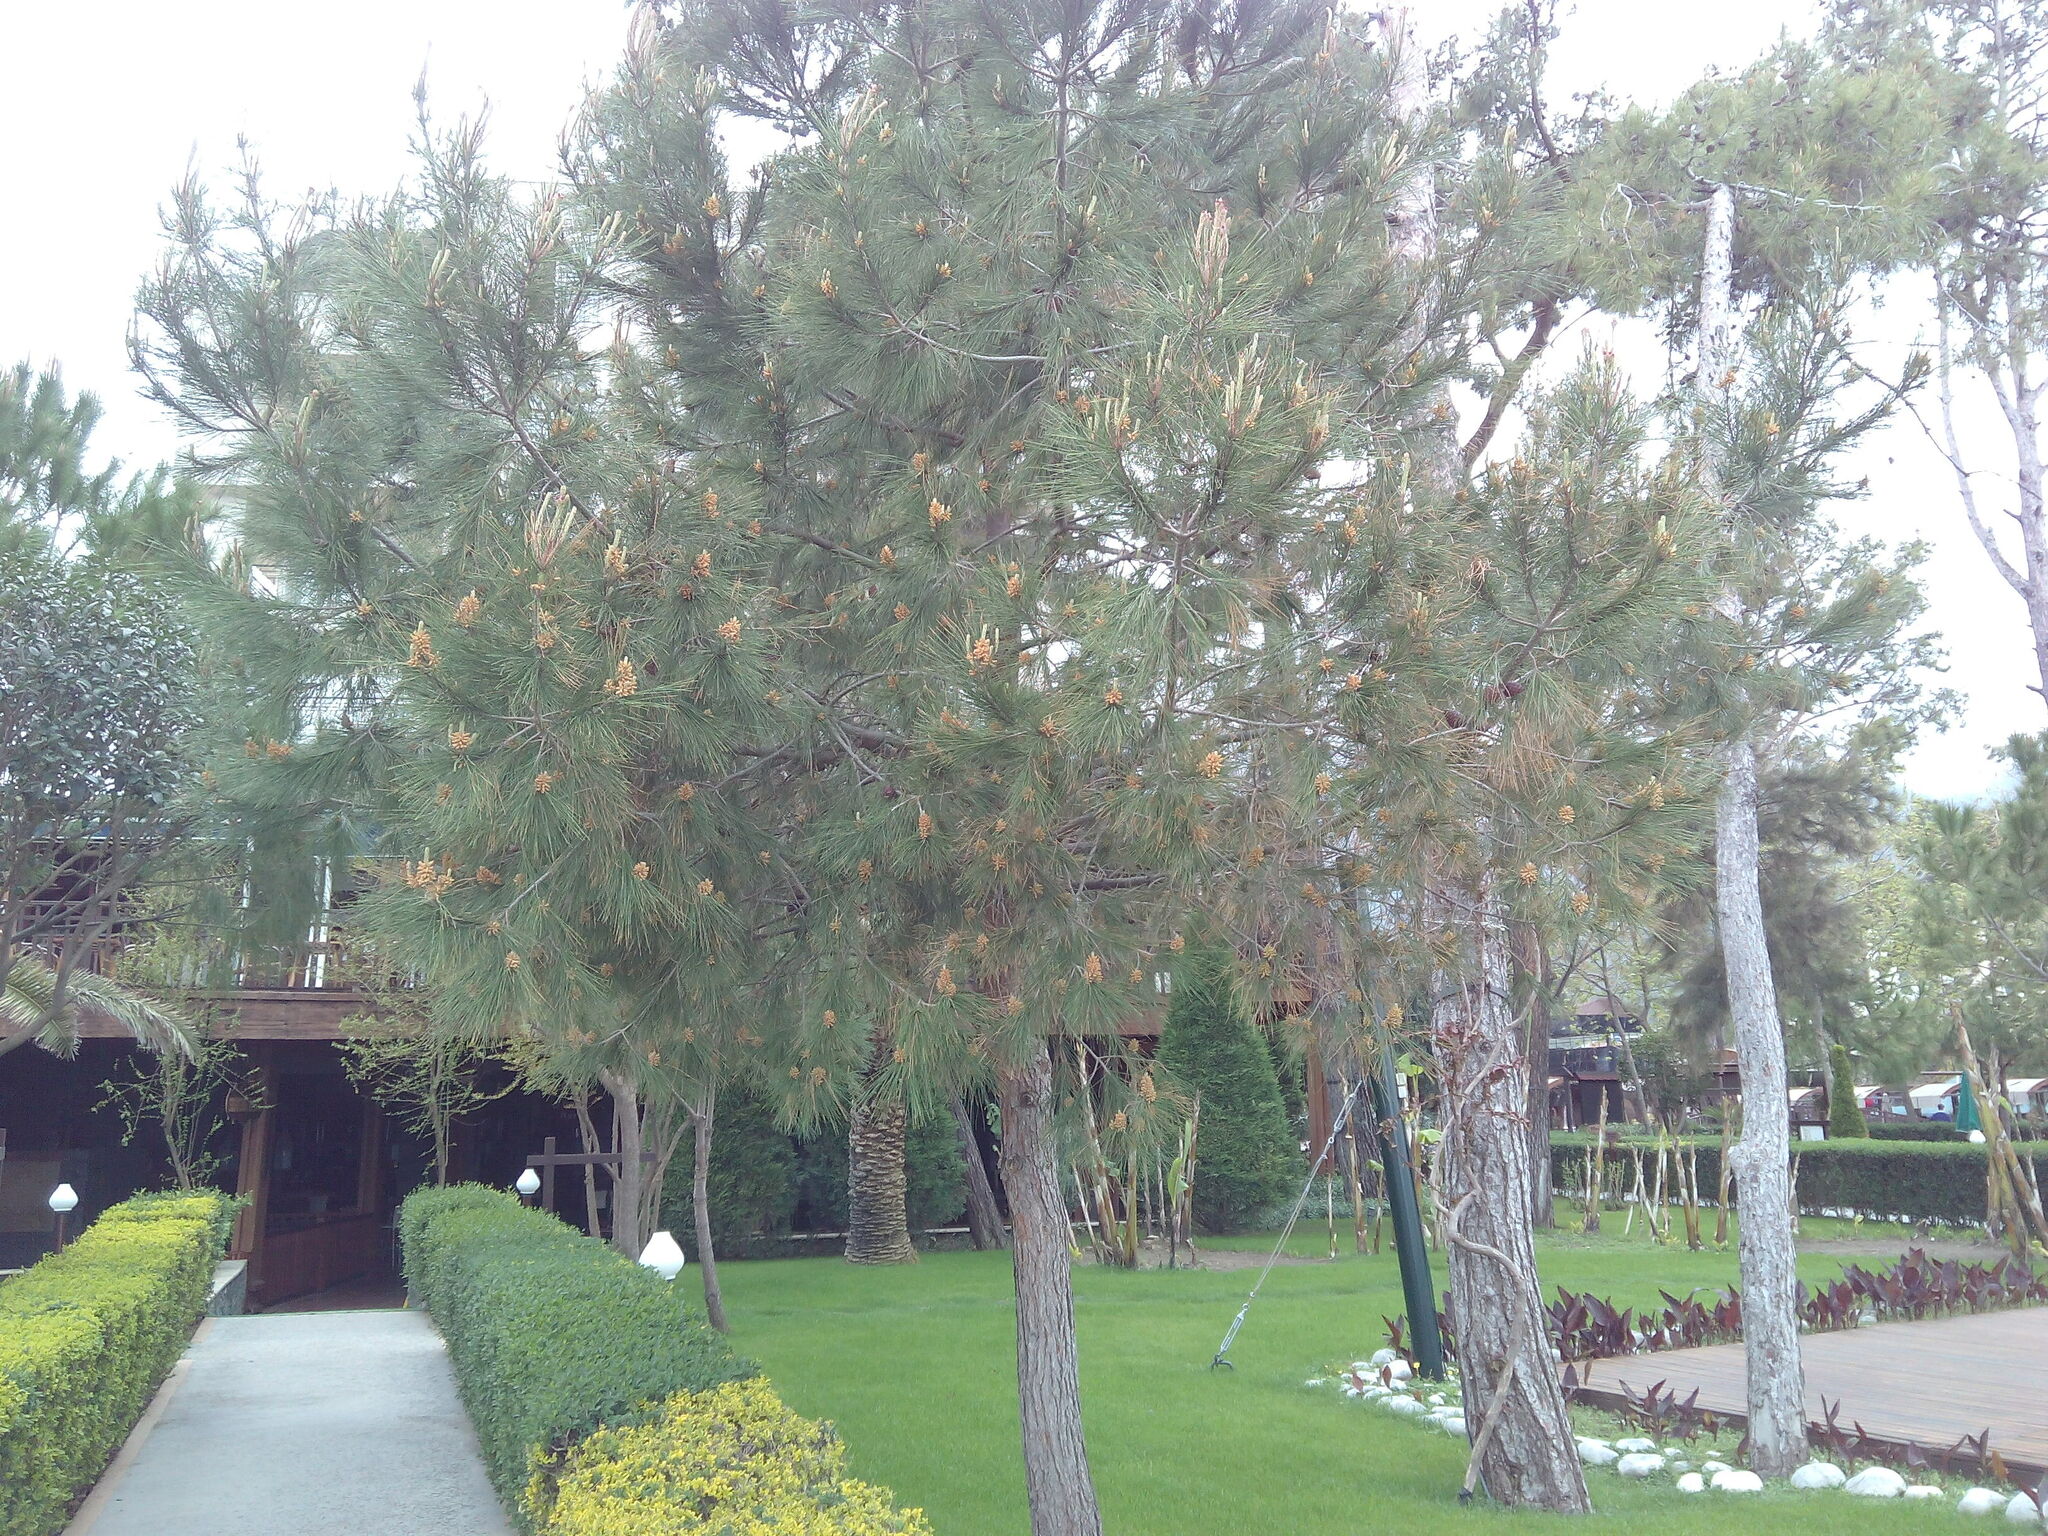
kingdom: Plantae
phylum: Tracheophyta
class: Pinopsida
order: Pinales
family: Pinaceae
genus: Pinus
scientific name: Pinus brutia
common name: Turkish pine
